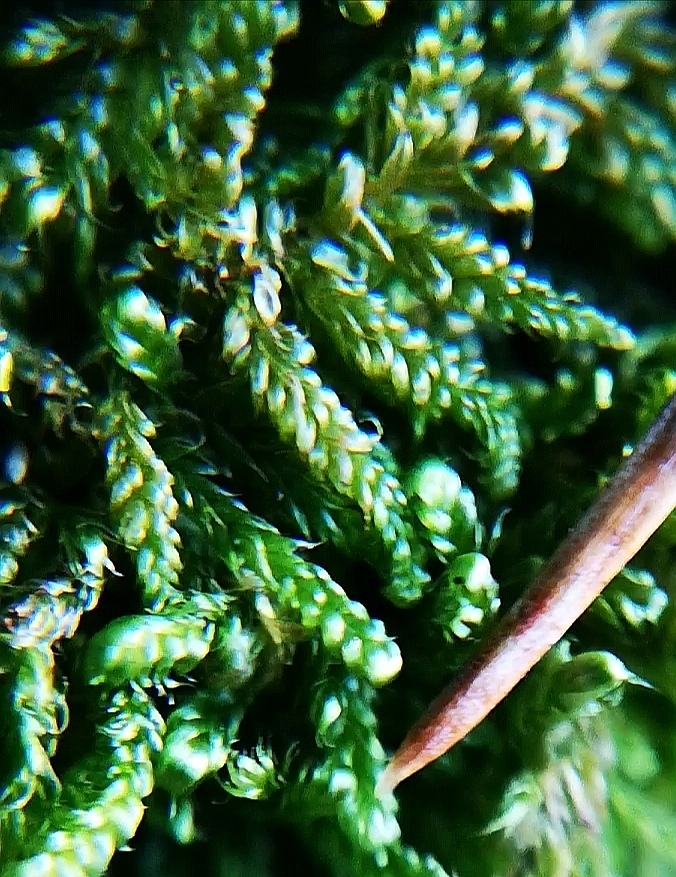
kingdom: Plantae
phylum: Bryophyta
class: Bryopsida
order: Hypnales
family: Hypnaceae
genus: Hypnum
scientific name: Hypnum cupressiforme
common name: Cypress-leaved plait-moss
